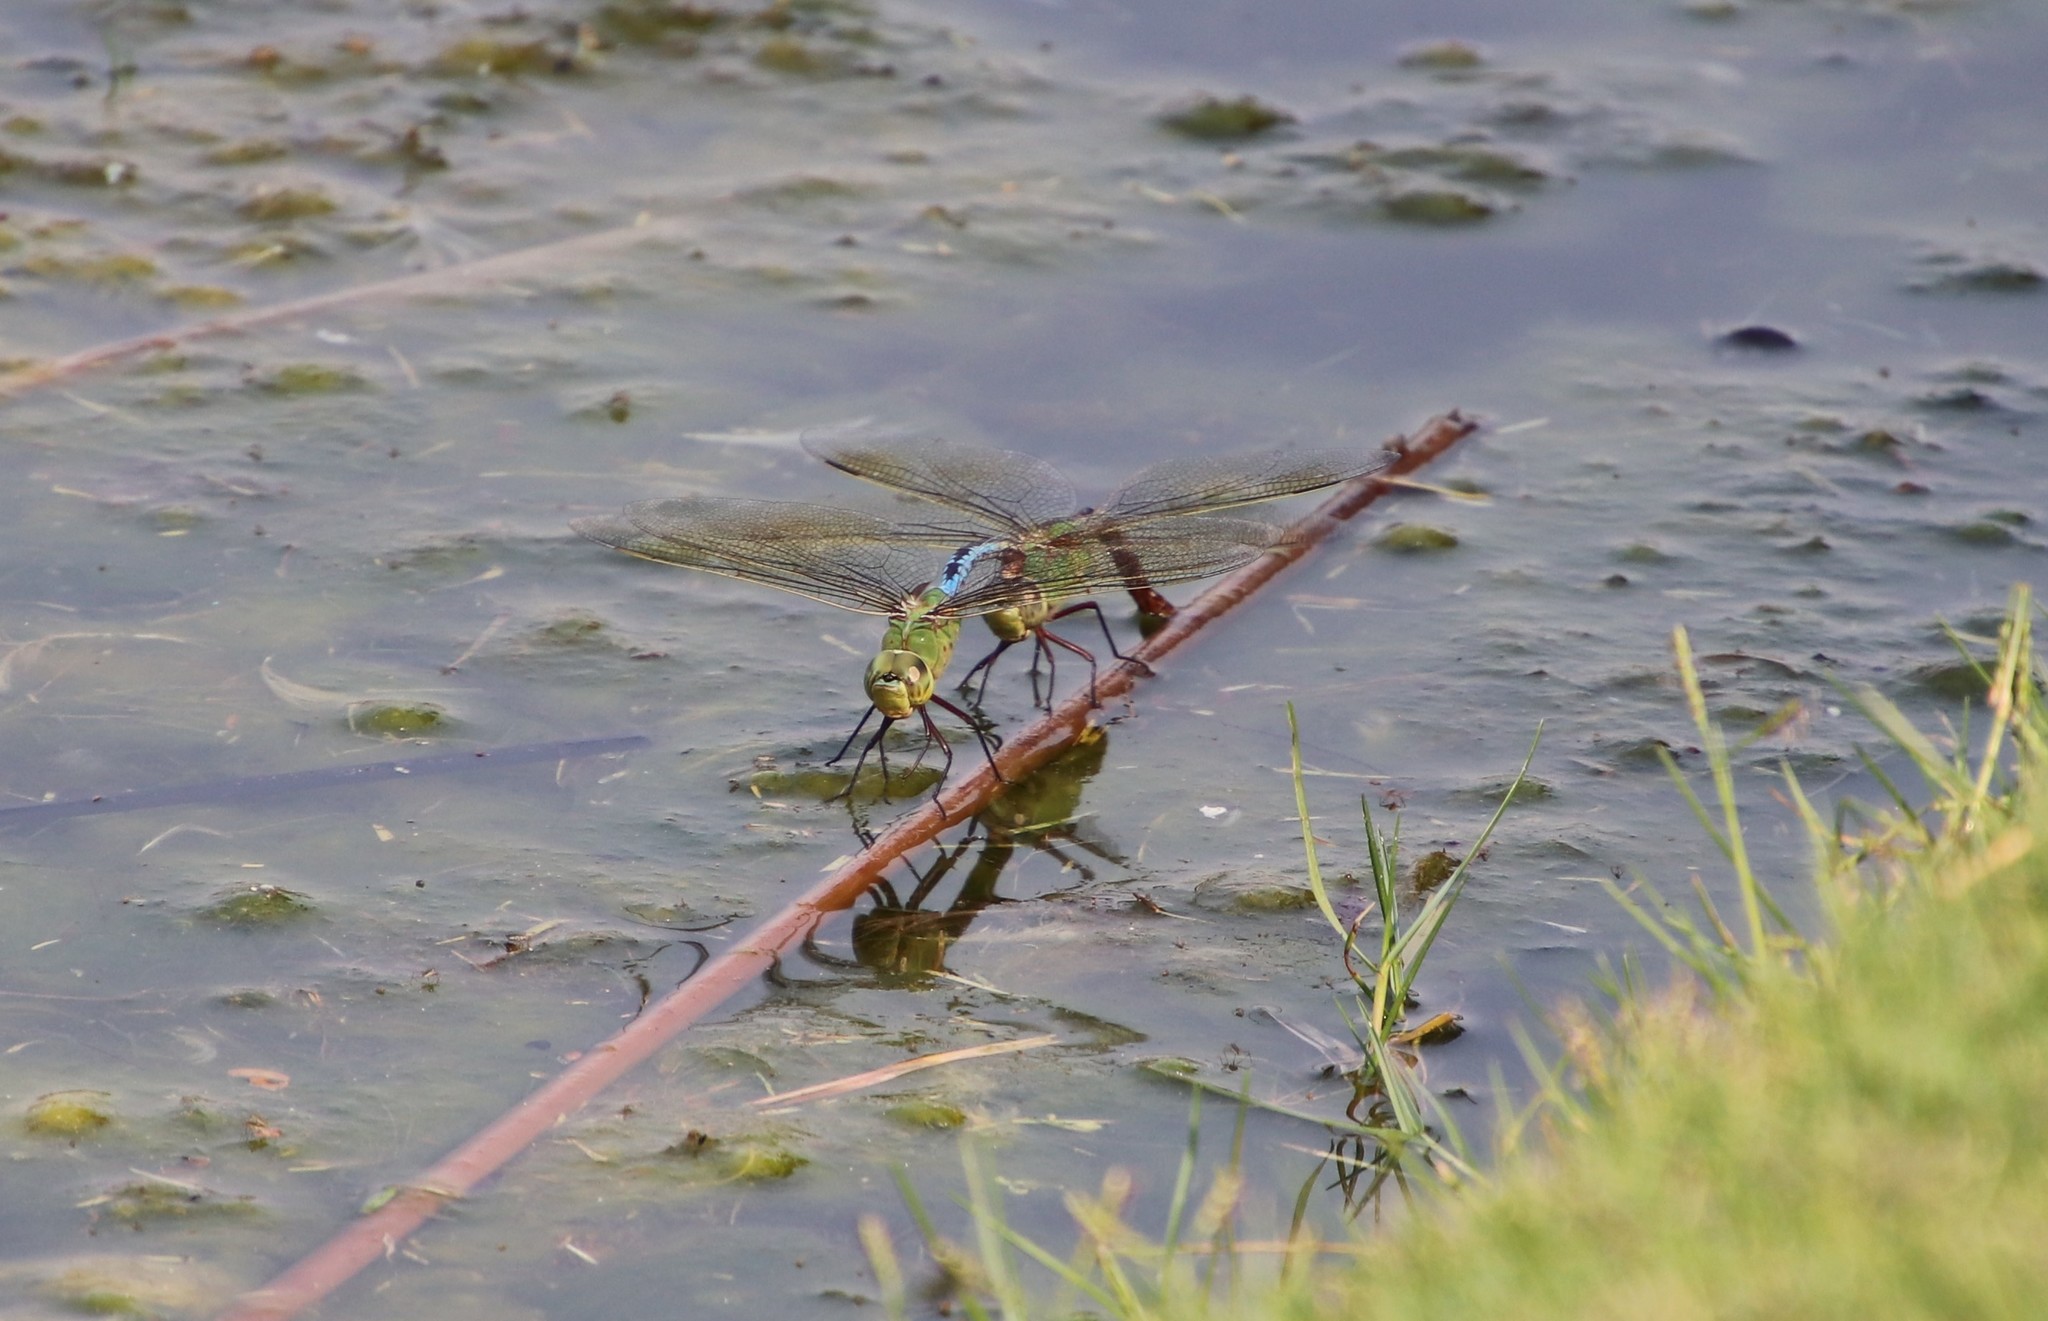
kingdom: Animalia
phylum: Arthropoda
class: Insecta
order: Odonata
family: Aeshnidae
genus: Anax
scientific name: Anax junius
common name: Common green darner
